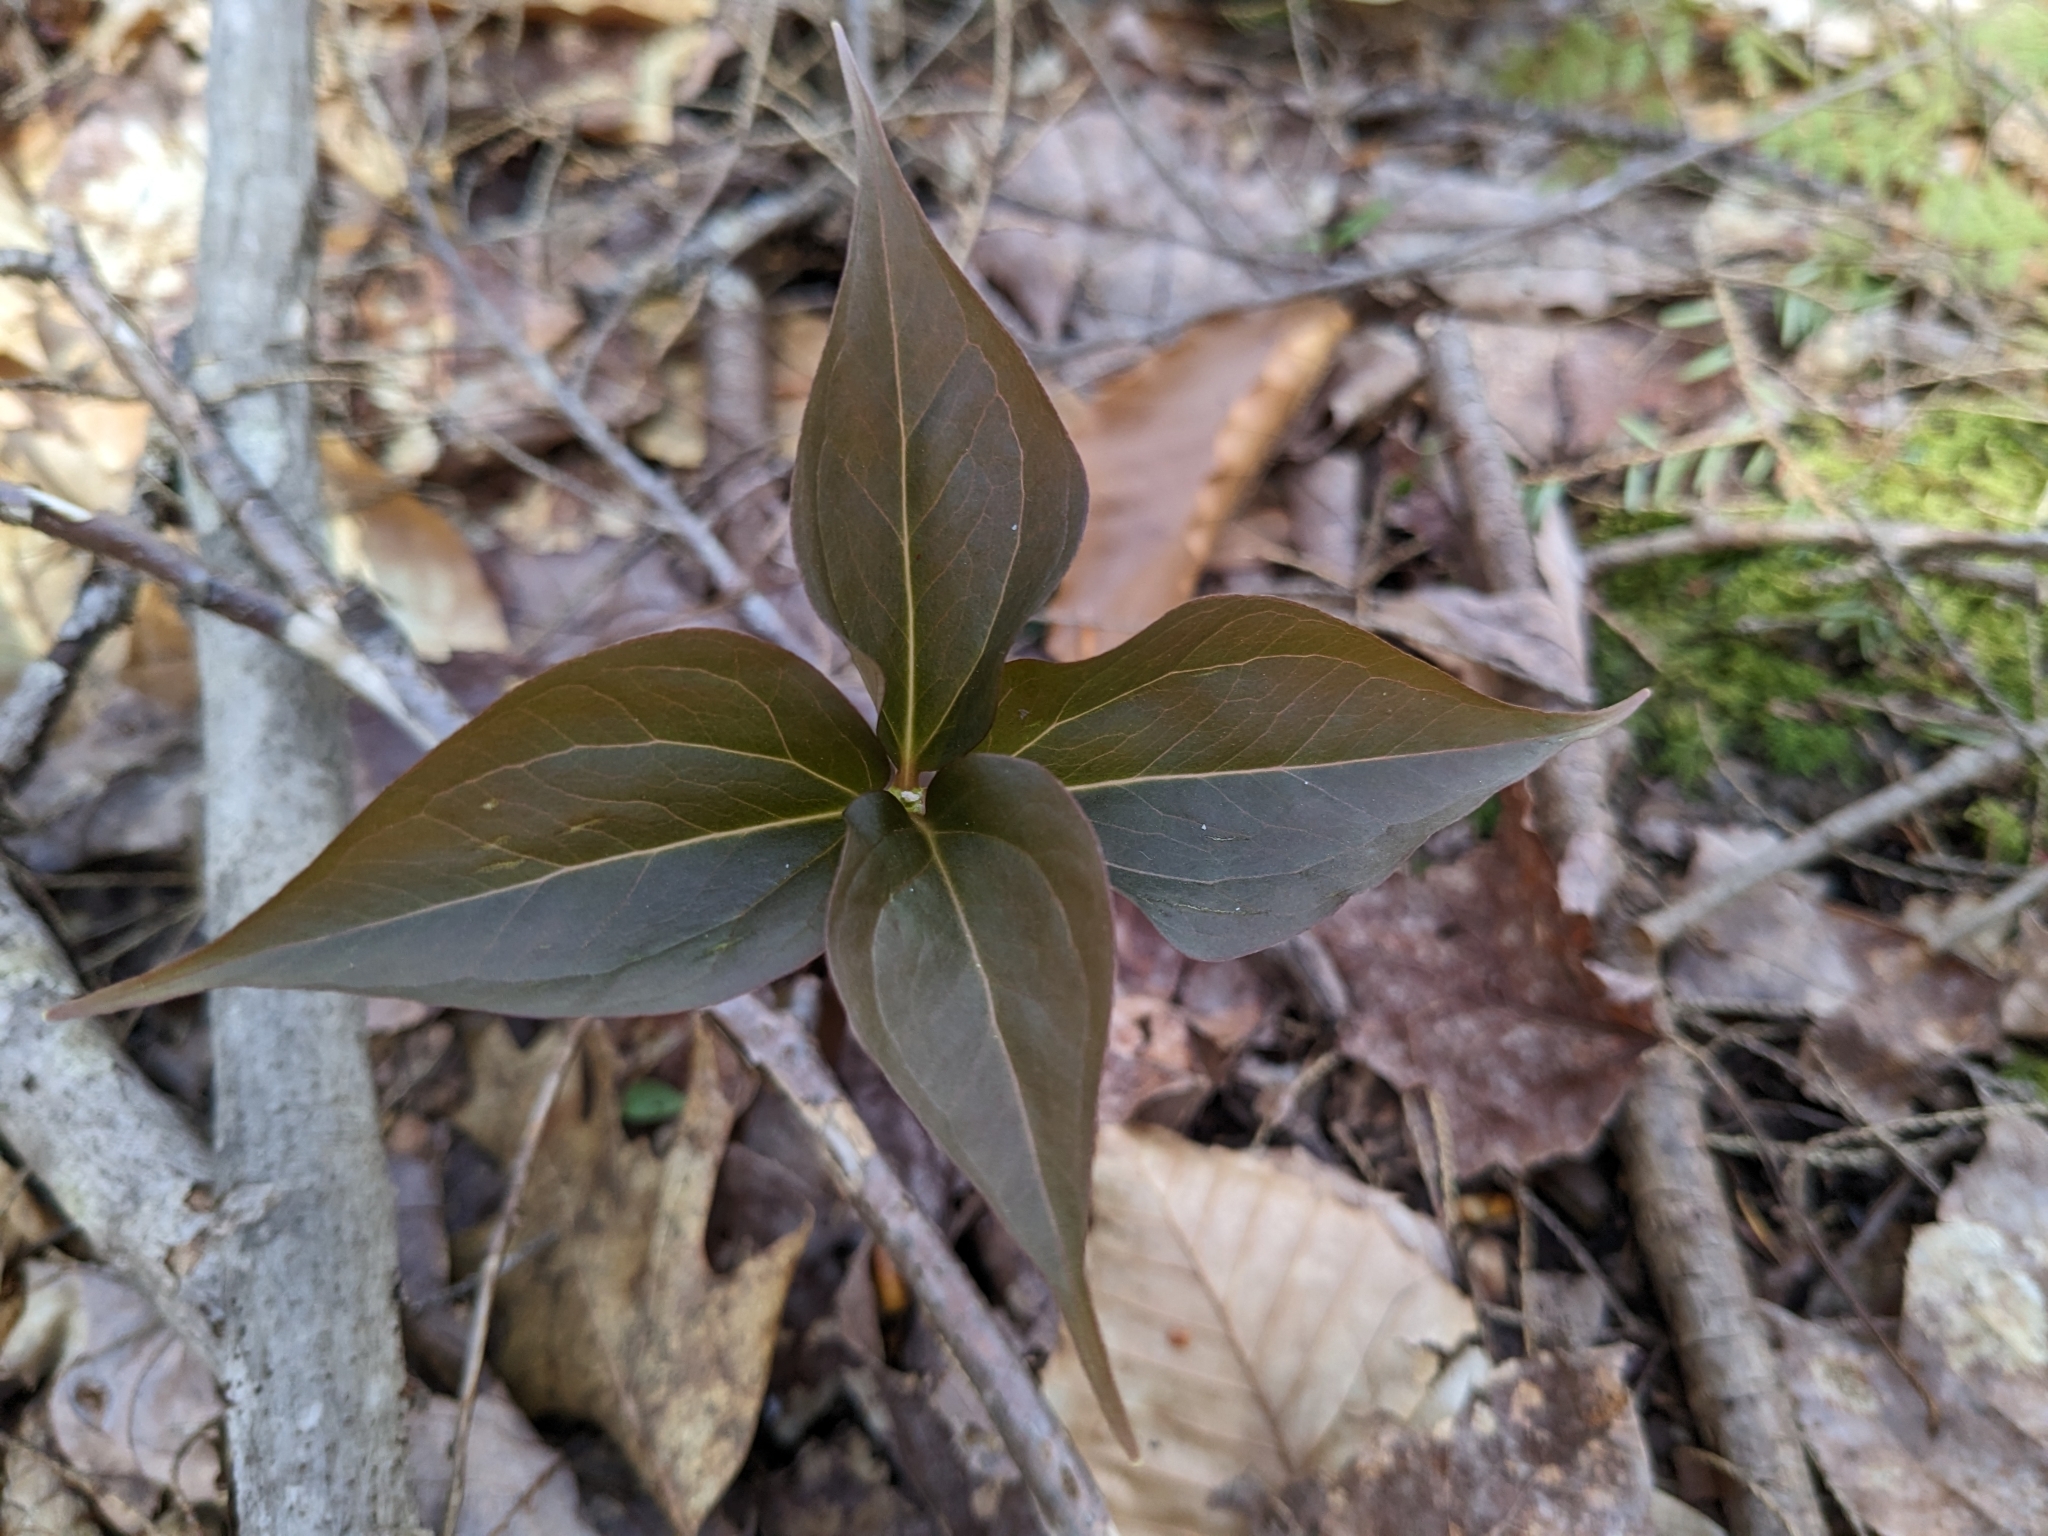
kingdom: Plantae
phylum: Tracheophyta
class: Liliopsida
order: Liliales
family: Melanthiaceae
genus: Trillium
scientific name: Trillium undulatum
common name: Paint trillium
